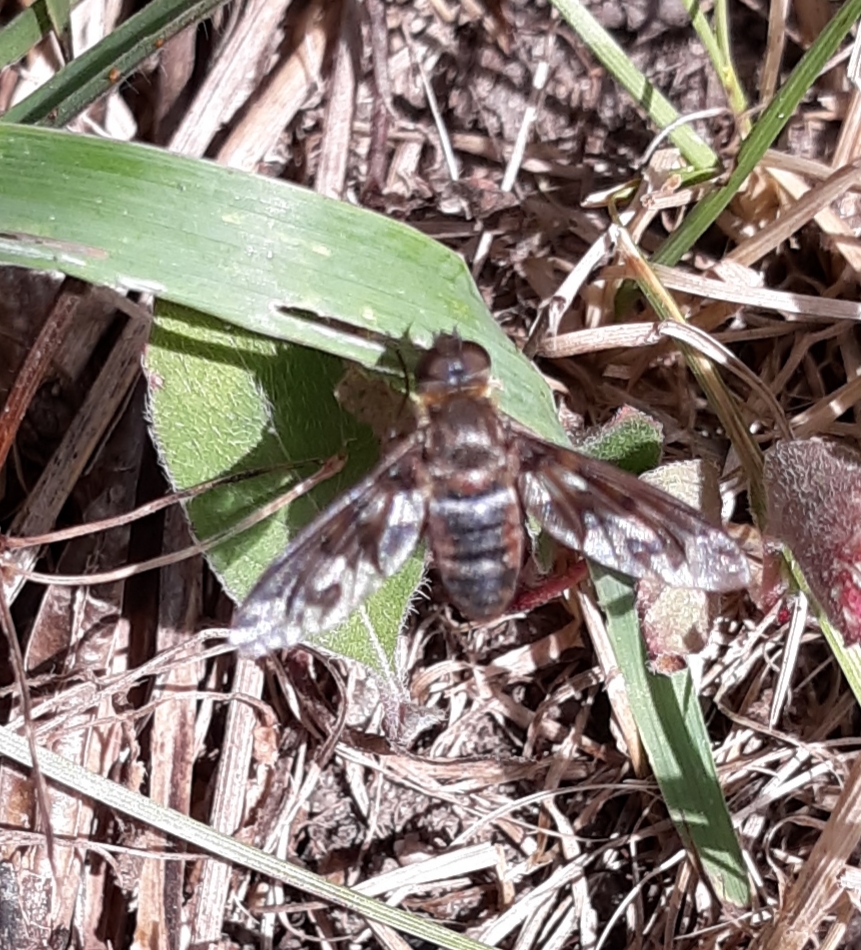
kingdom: Animalia
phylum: Arthropoda
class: Insecta
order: Diptera
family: Bombyliidae
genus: Exoprosopa
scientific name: Exoprosopa fascipennis
